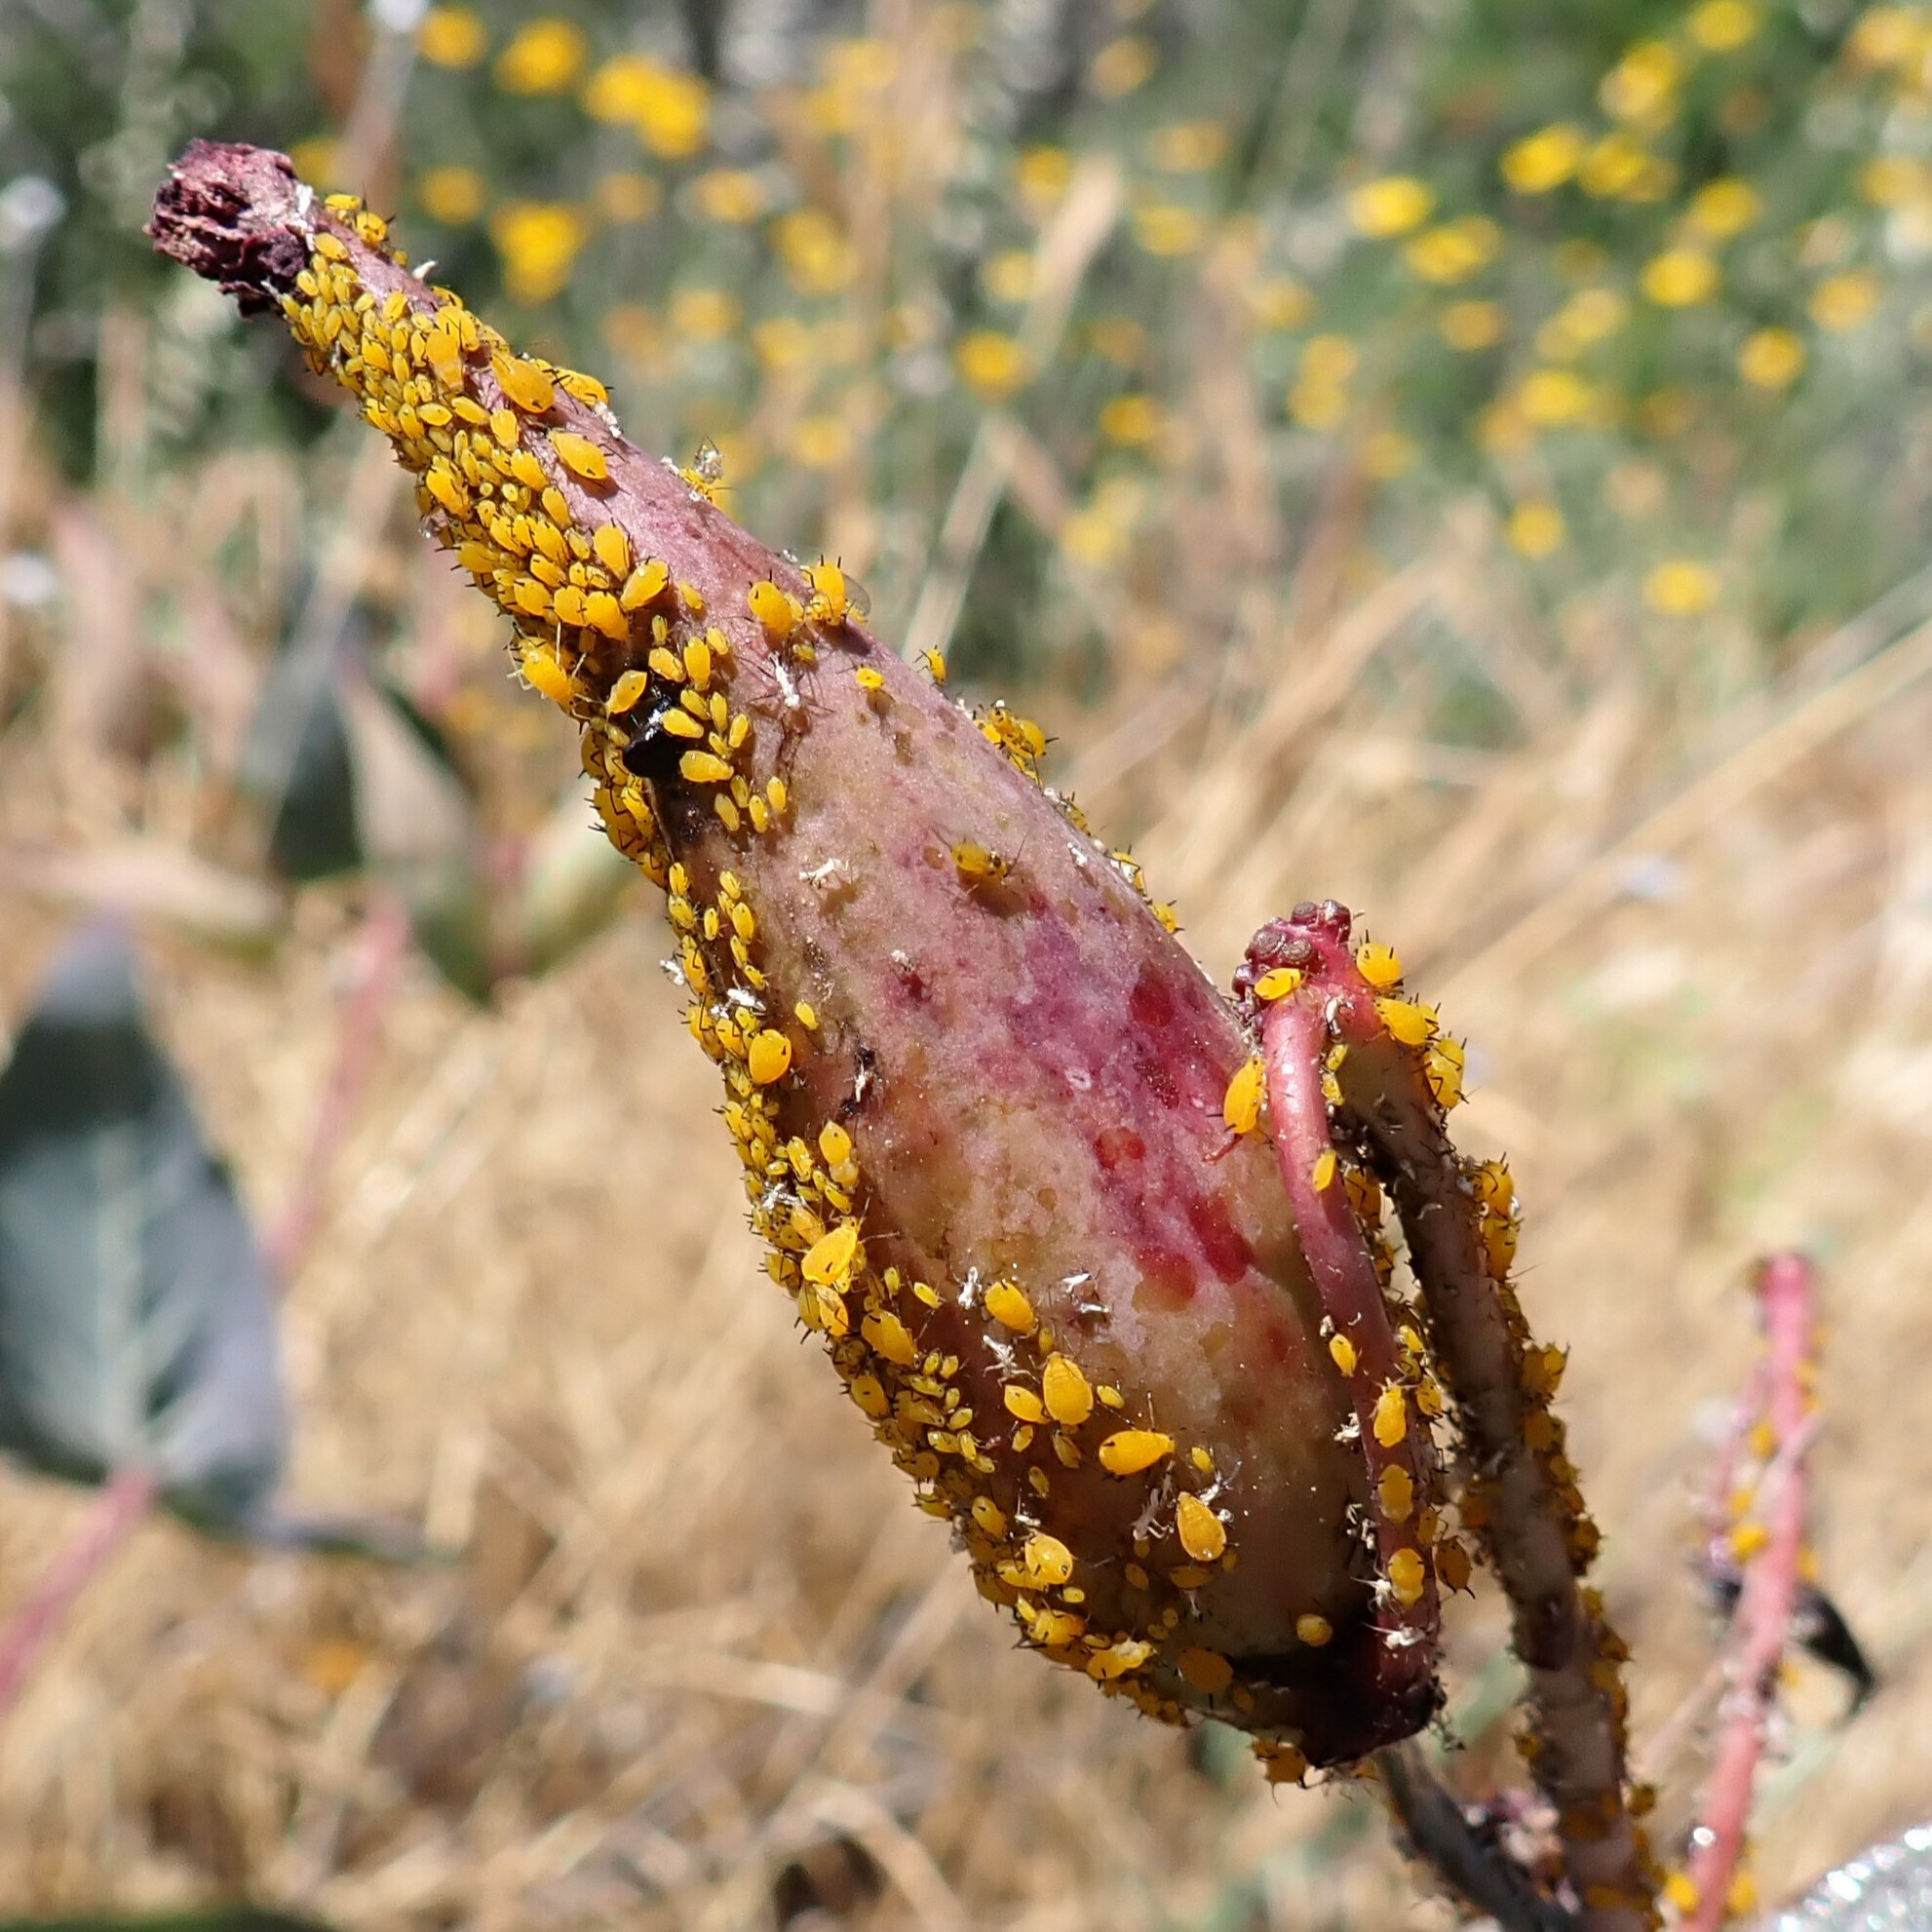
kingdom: Animalia
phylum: Arthropoda
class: Insecta
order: Hemiptera
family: Aphididae
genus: Aphis
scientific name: Aphis nerii
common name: Oleander aphid
